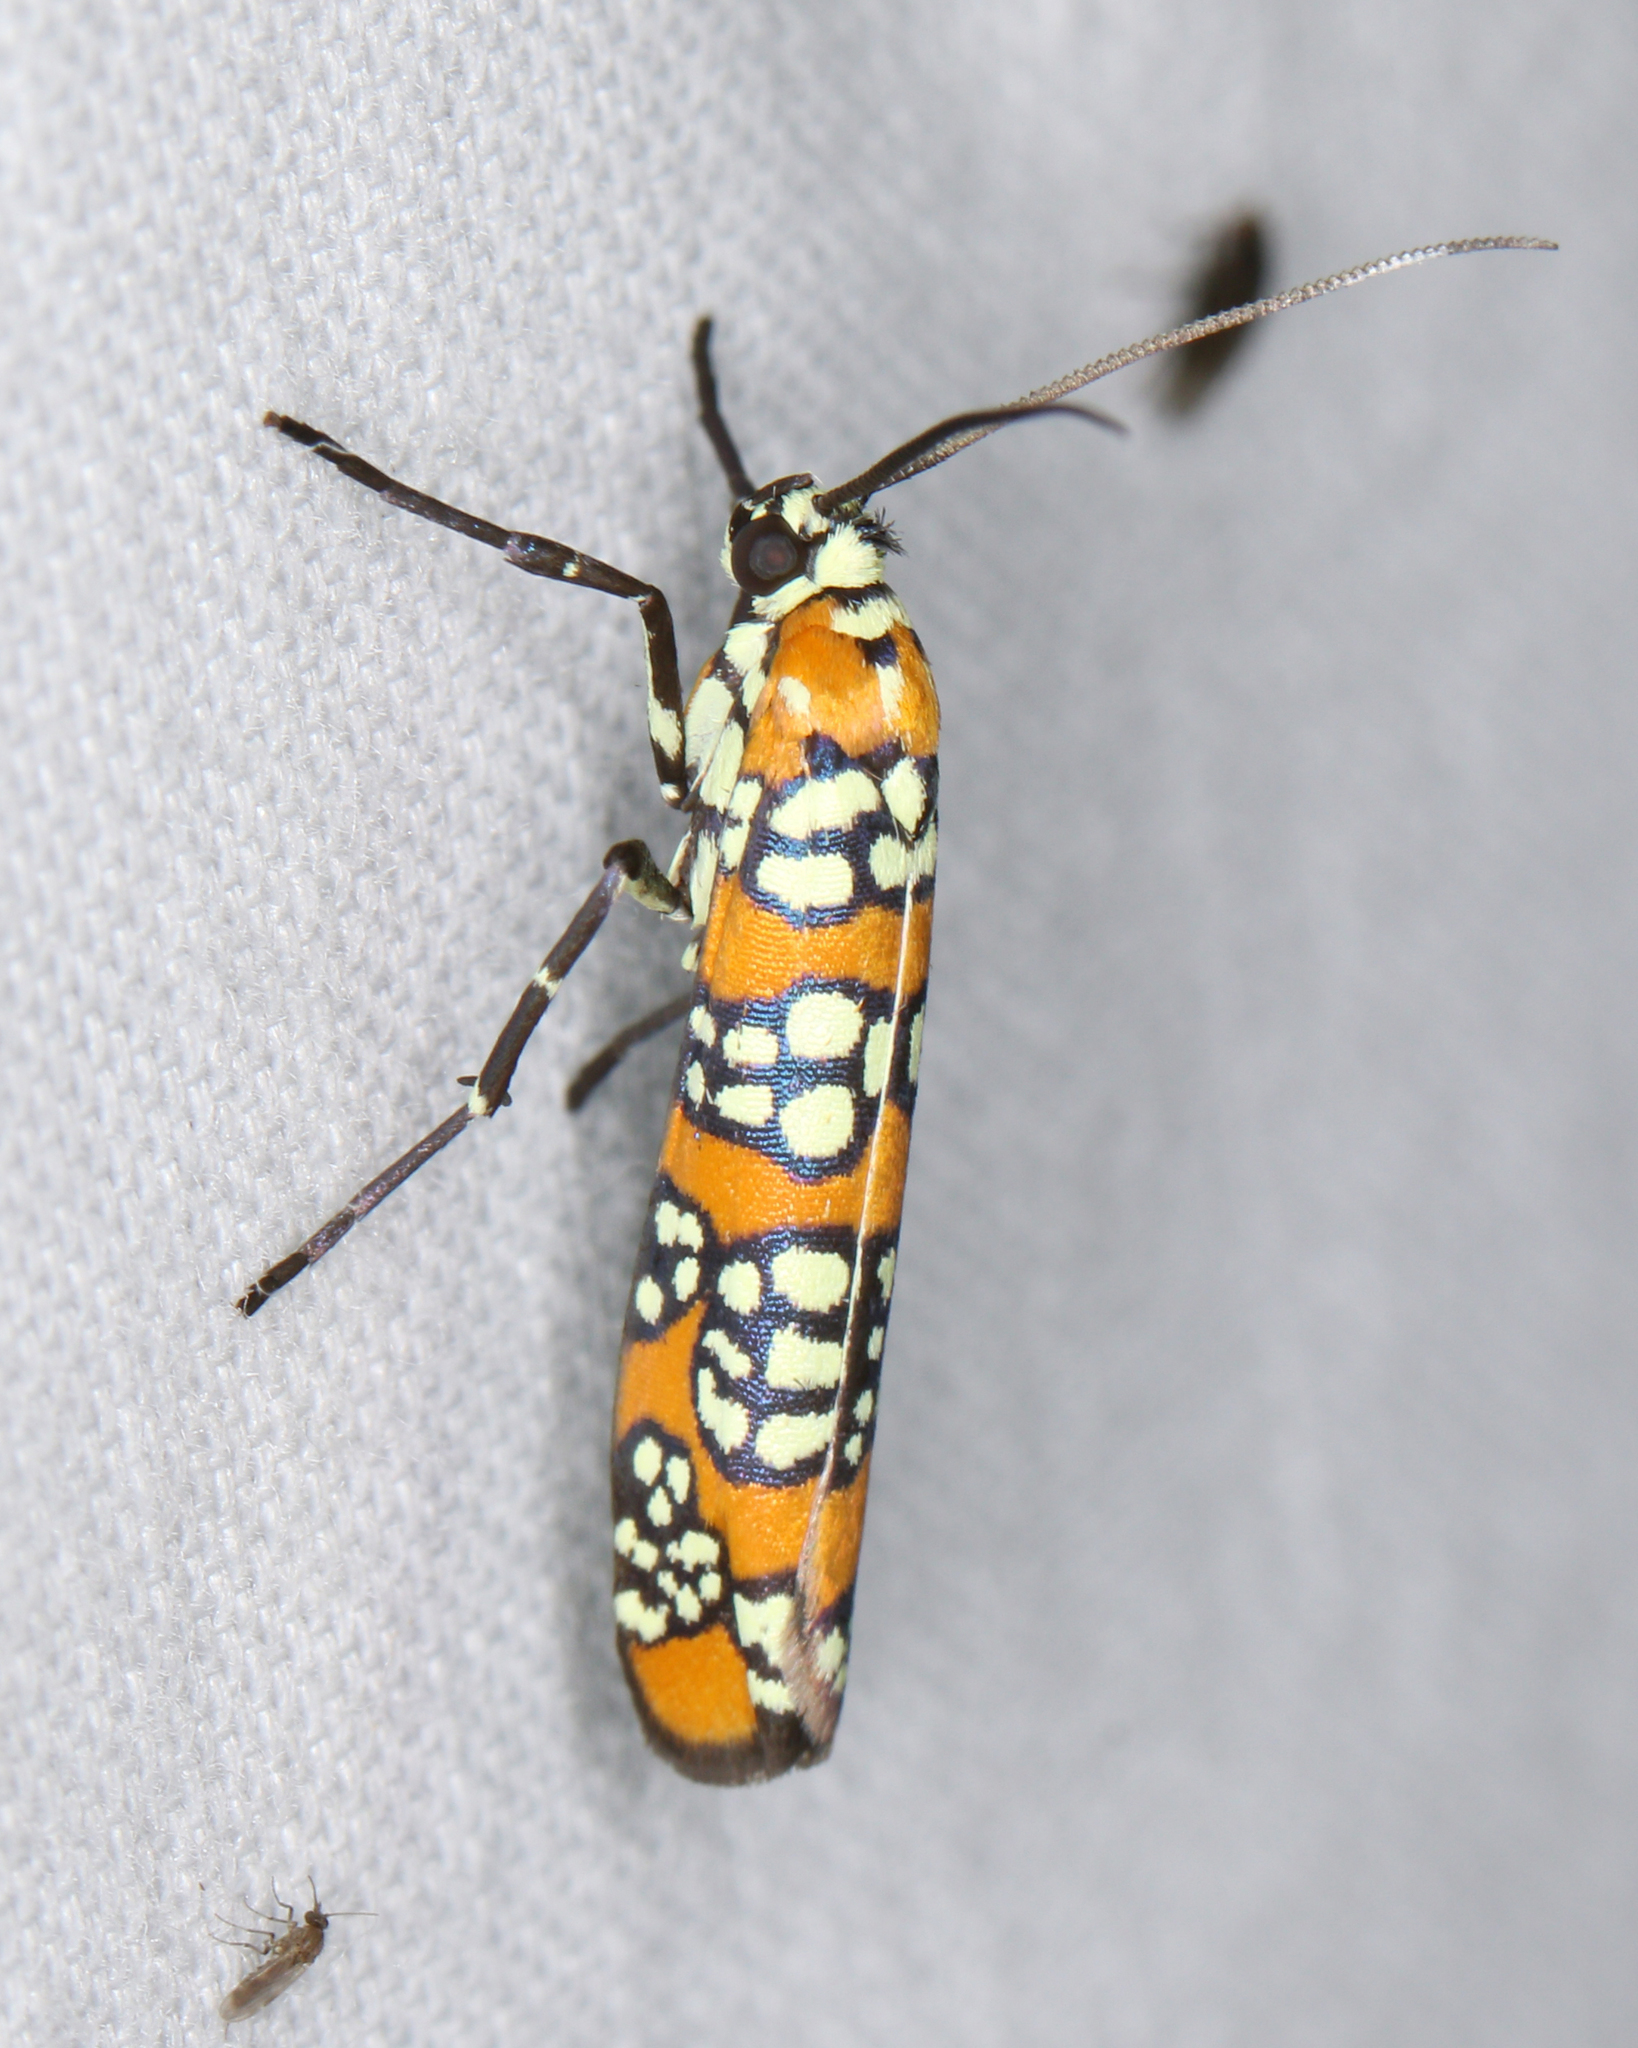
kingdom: Animalia
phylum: Arthropoda
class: Insecta
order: Lepidoptera
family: Attevidae
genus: Atteva
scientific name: Atteva punctella
